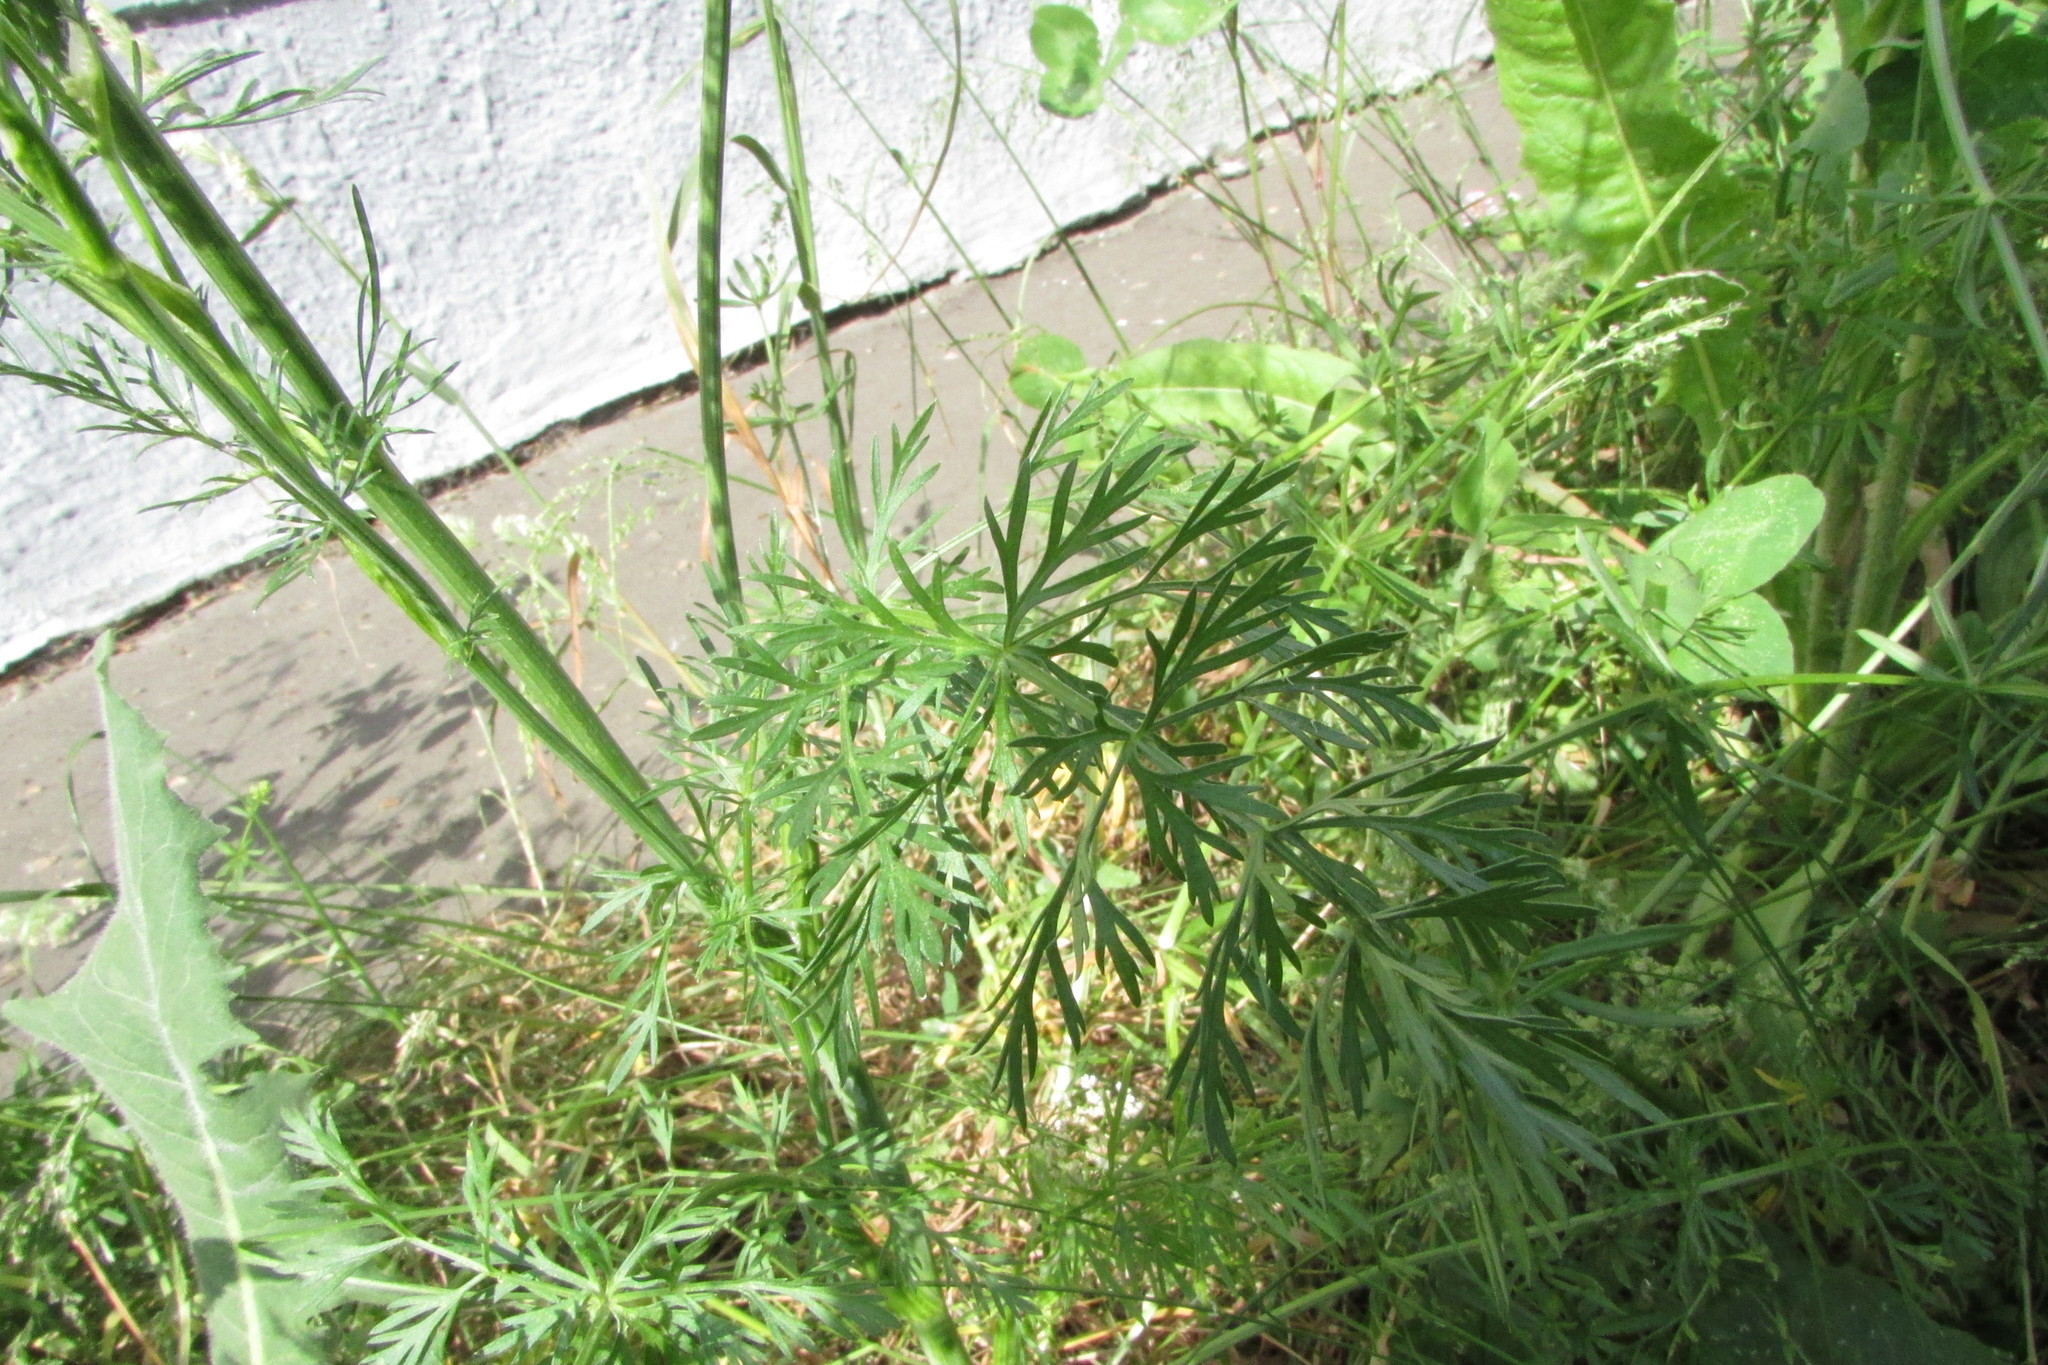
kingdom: Plantae
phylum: Tracheophyta
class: Magnoliopsida
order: Apiales
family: Apiaceae
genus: Carum
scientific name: Carum carvi
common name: Caraway
